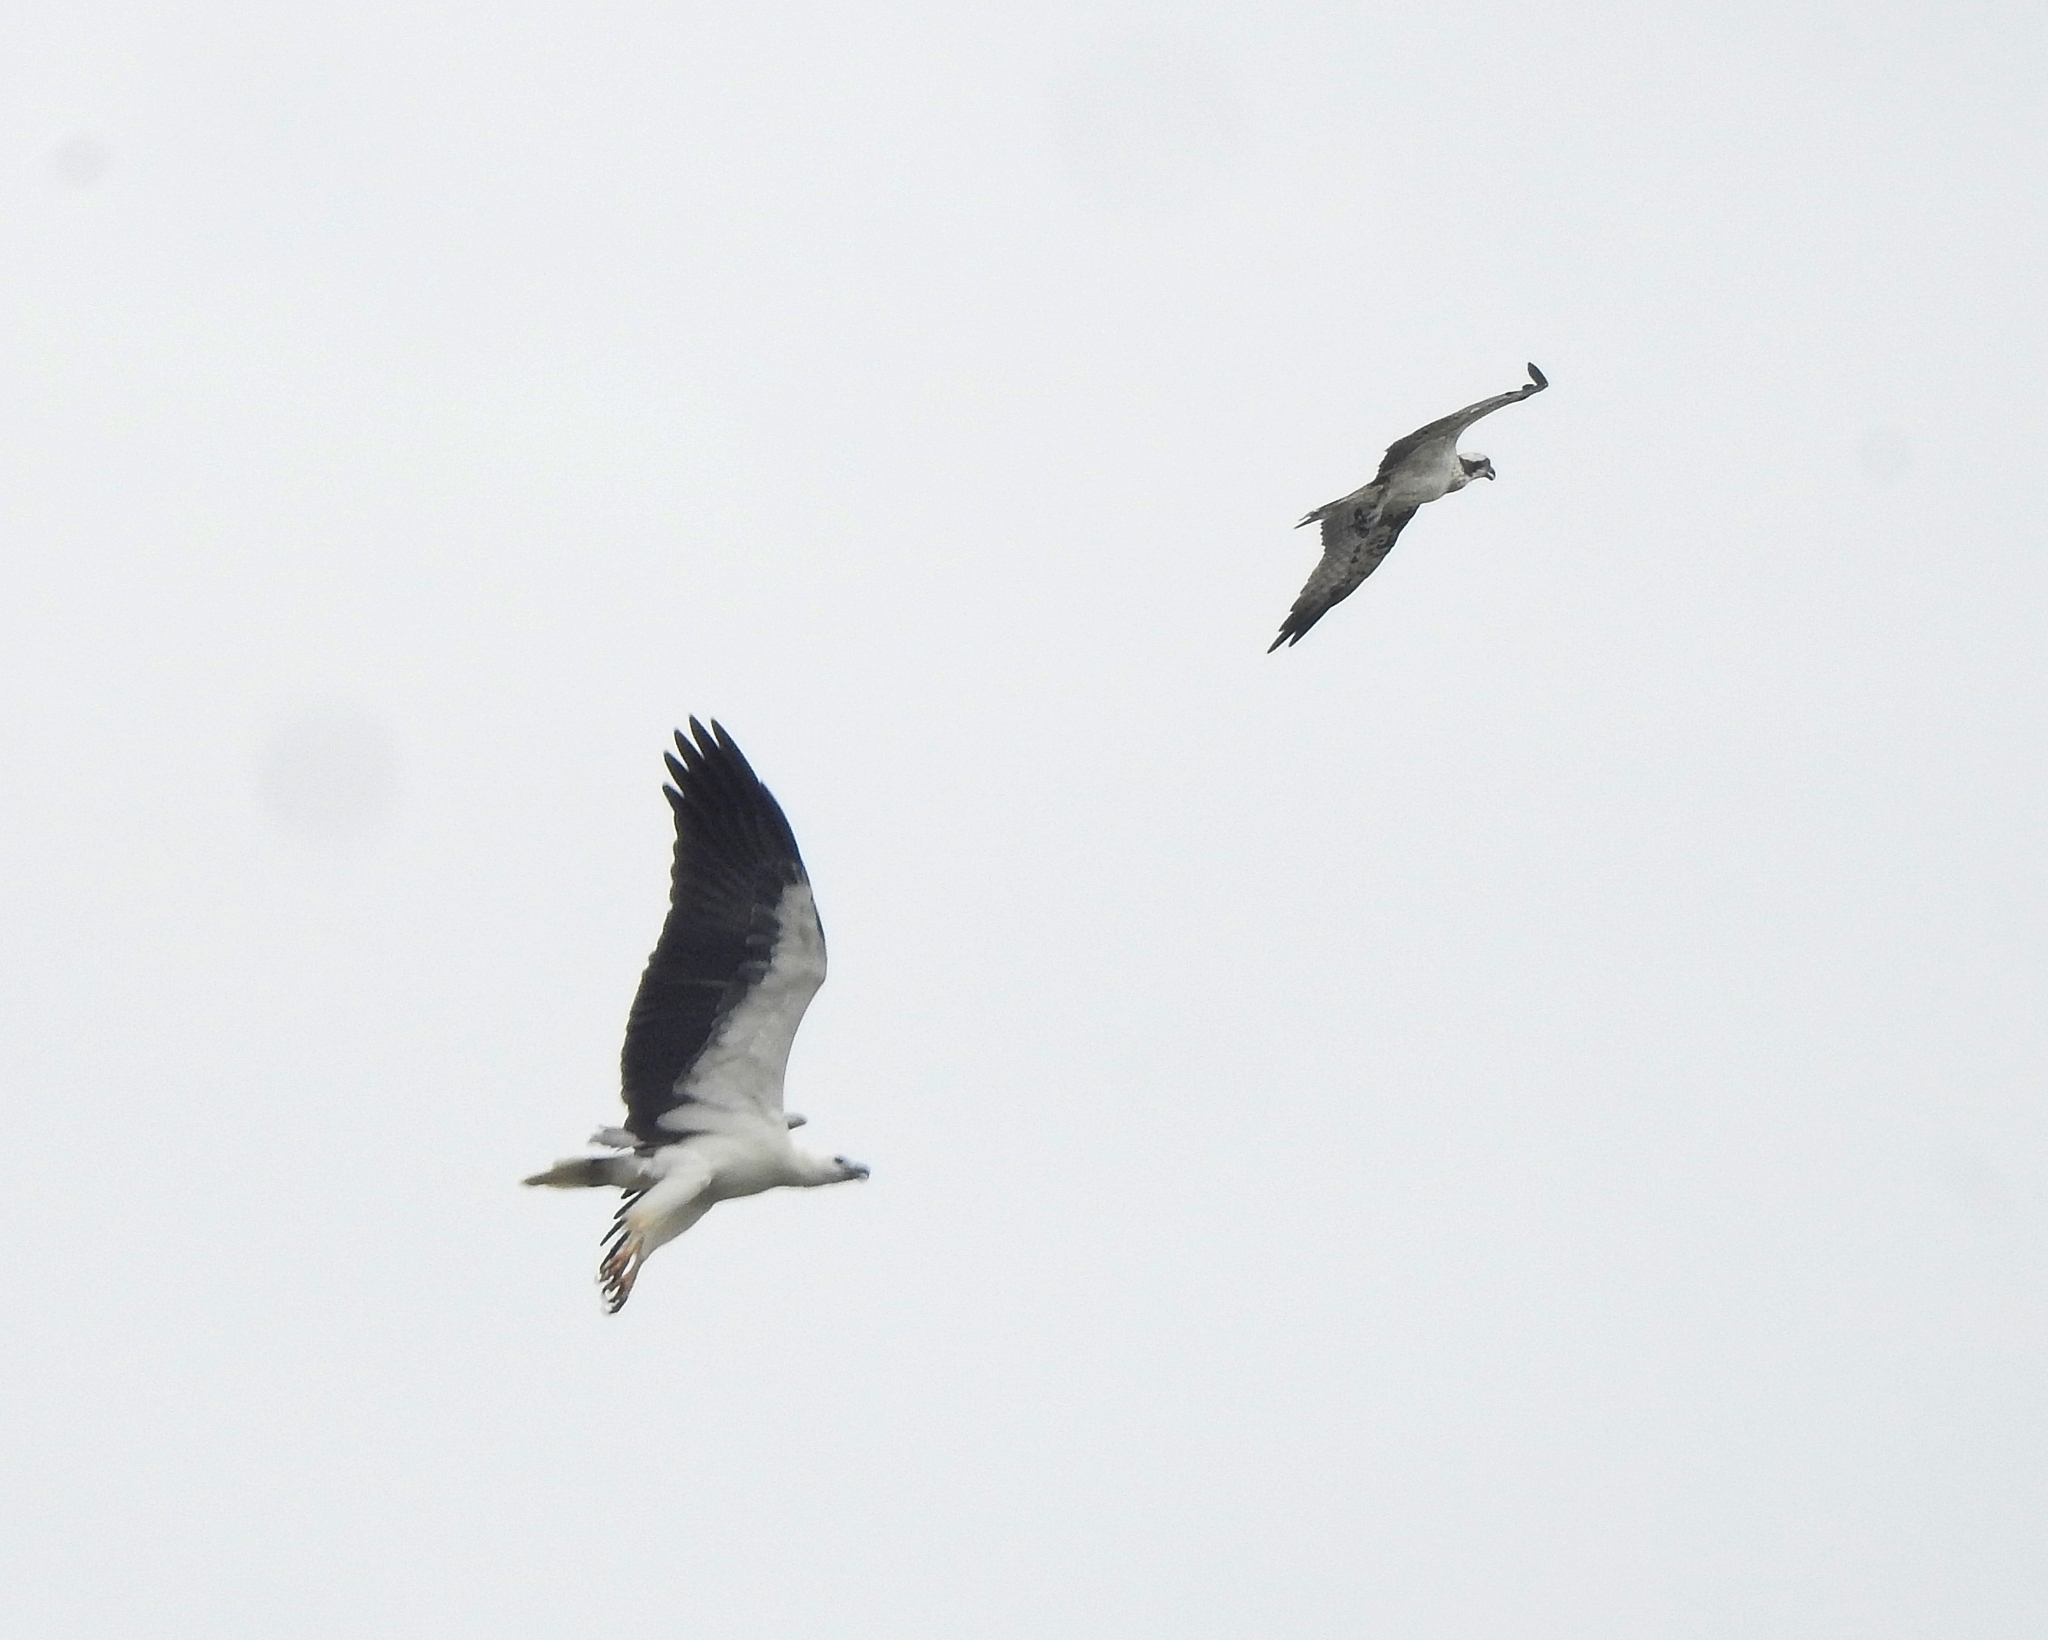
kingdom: Animalia
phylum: Chordata
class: Aves
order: Accipitriformes
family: Accipitridae
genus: Haliaeetus
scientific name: Haliaeetus leucogaster
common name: White-bellied sea eagle
